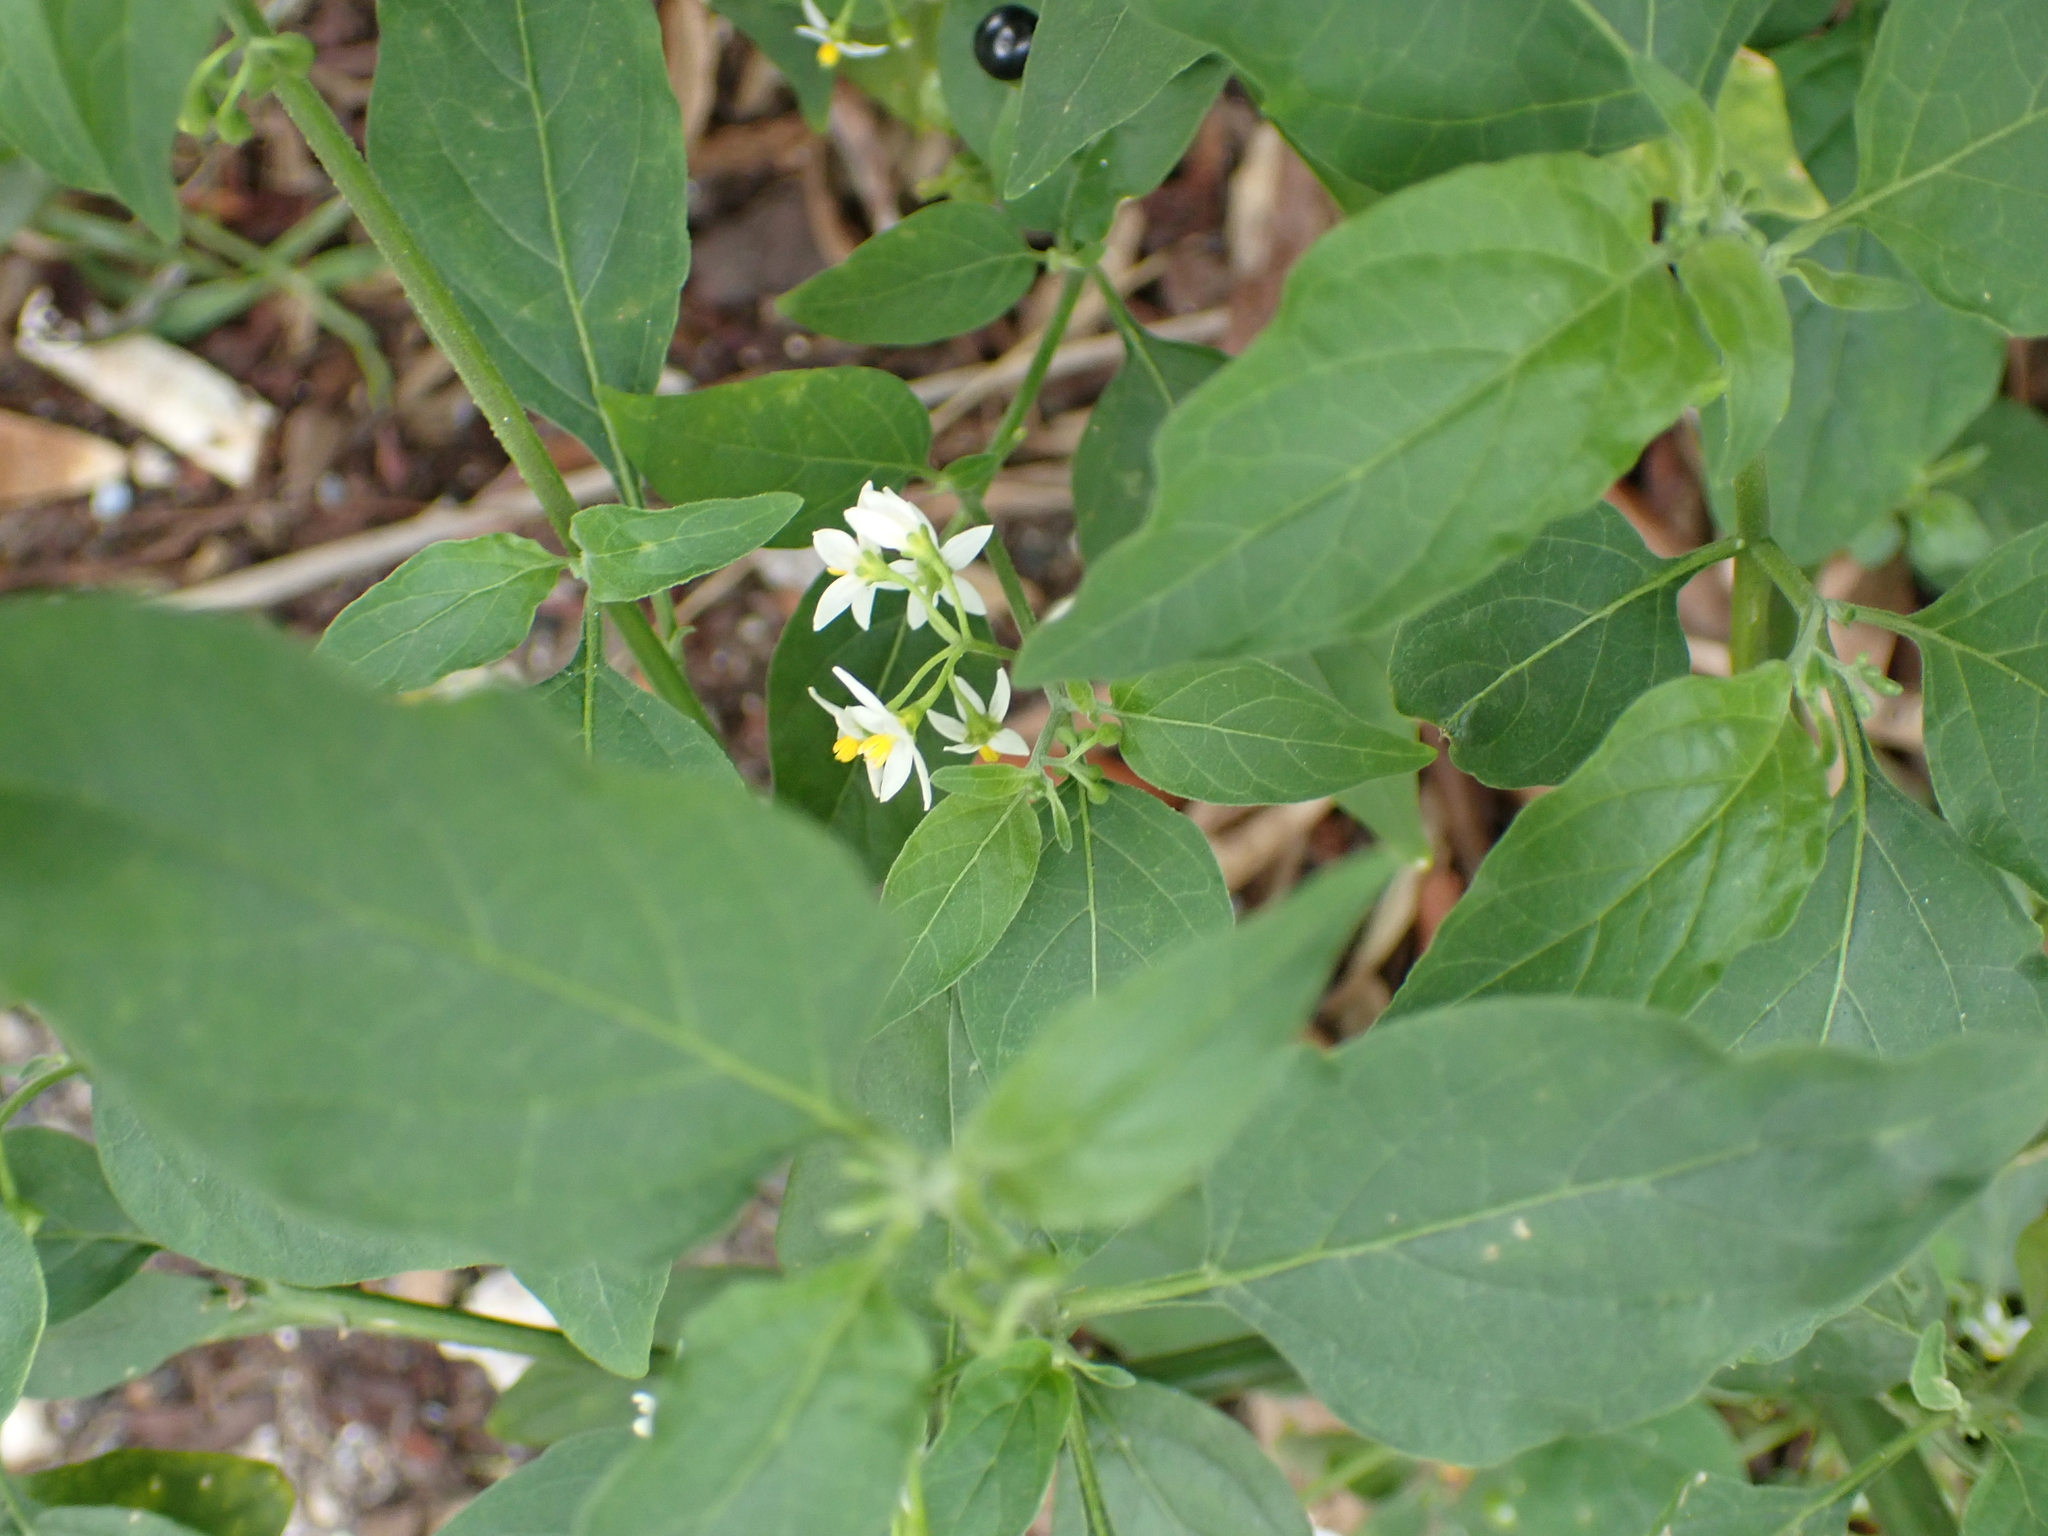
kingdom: Plantae
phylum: Tracheophyta
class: Magnoliopsida
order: Solanales
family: Solanaceae
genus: Solanum
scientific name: Solanum americanum
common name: American black nightshade
